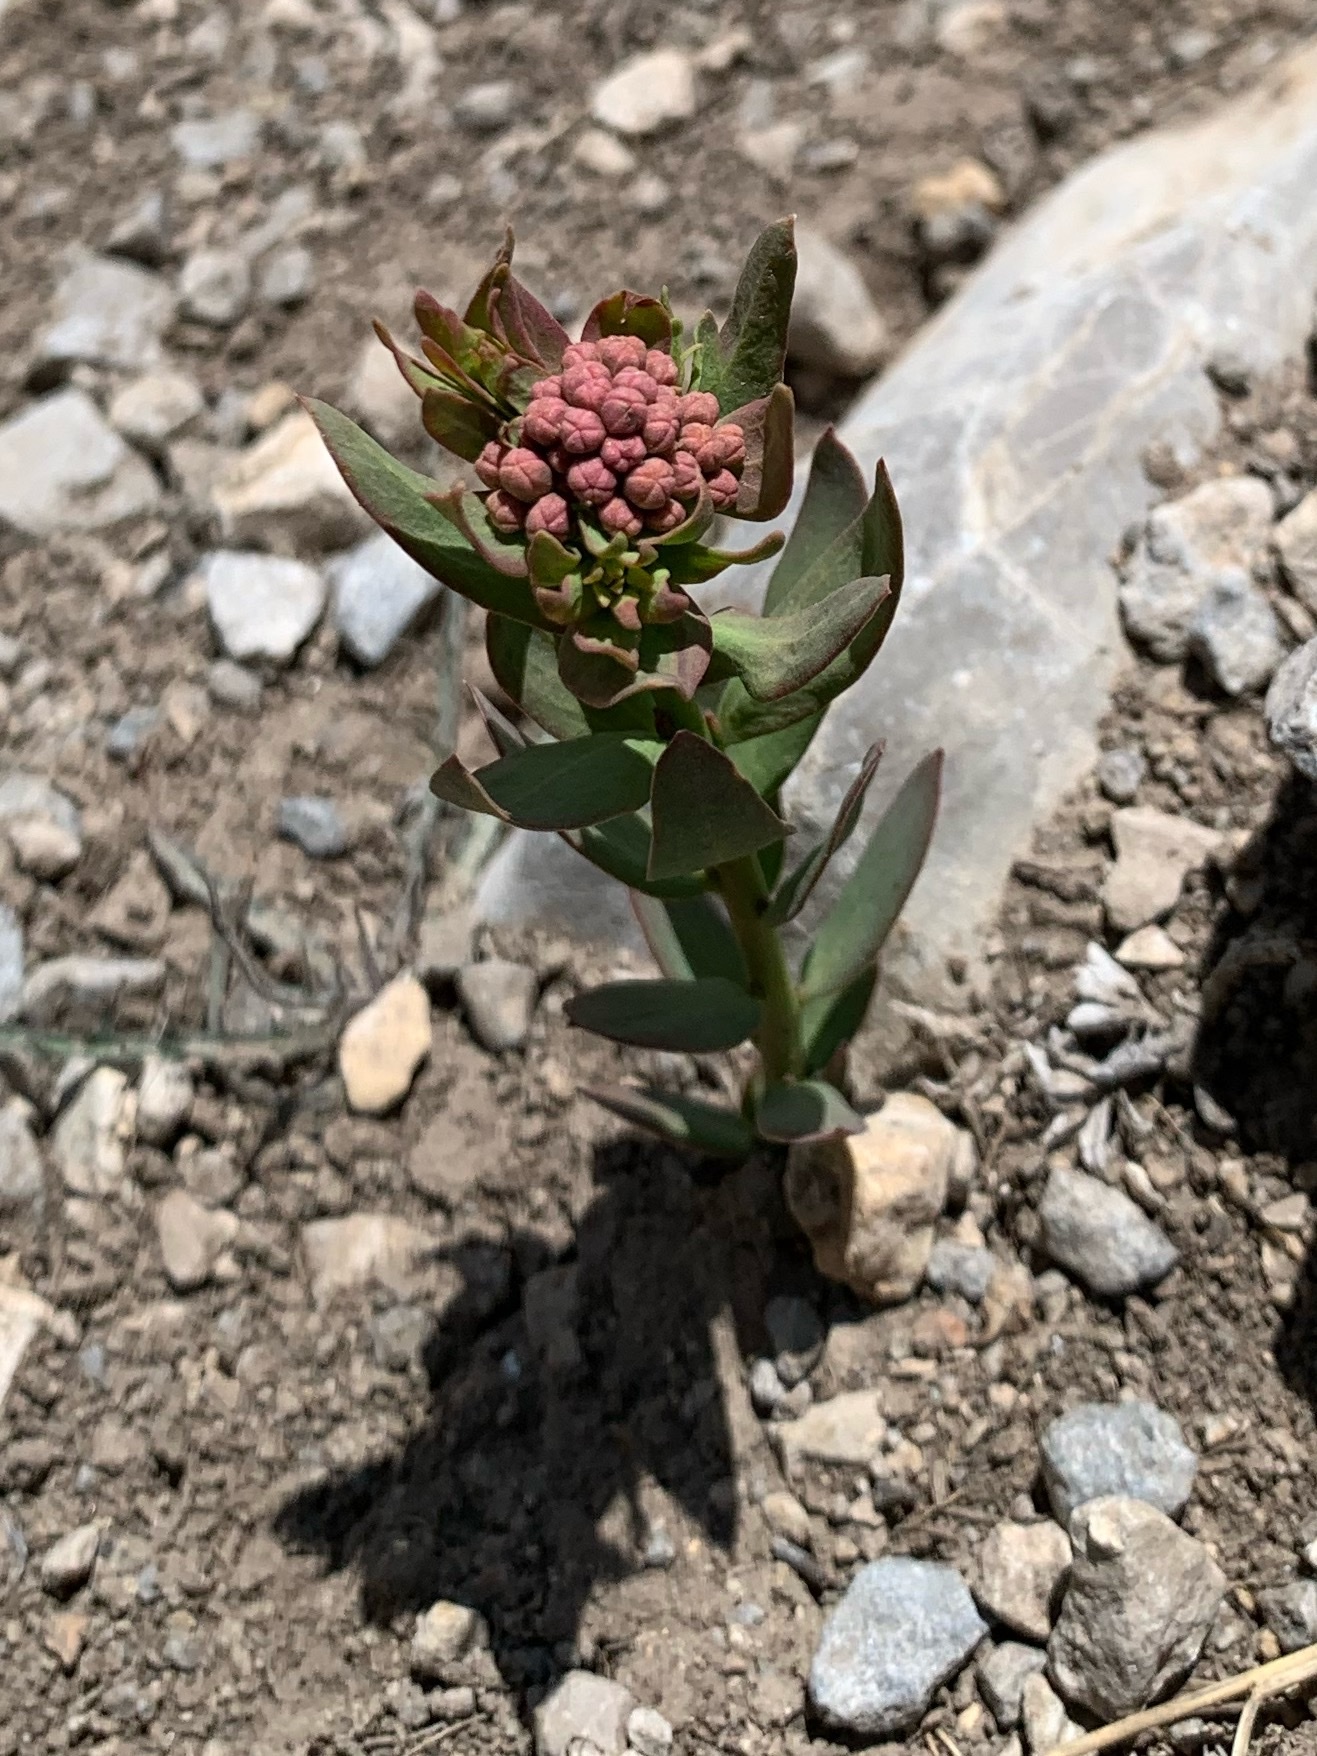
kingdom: Plantae
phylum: Tracheophyta
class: Magnoliopsida
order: Santalales
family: Comandraceae
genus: Comandra
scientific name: Comandra umbellata
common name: Bastard toadflax
